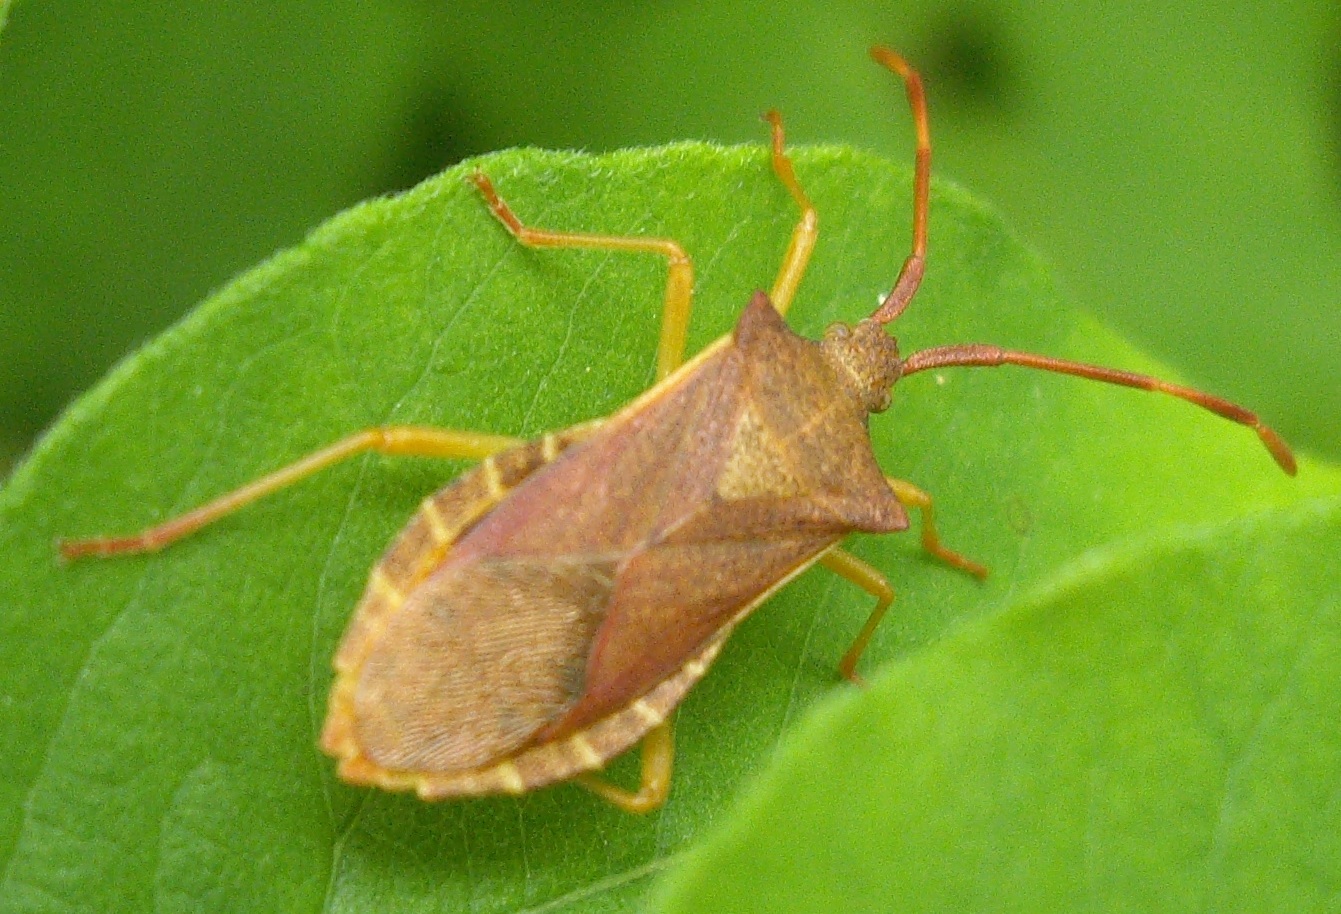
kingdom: Animalia
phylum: Arthropoda
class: Insecta
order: Hemiptera
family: Coreidae
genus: Gonocerus
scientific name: Gonocerus acuteangulatus
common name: Box bug
